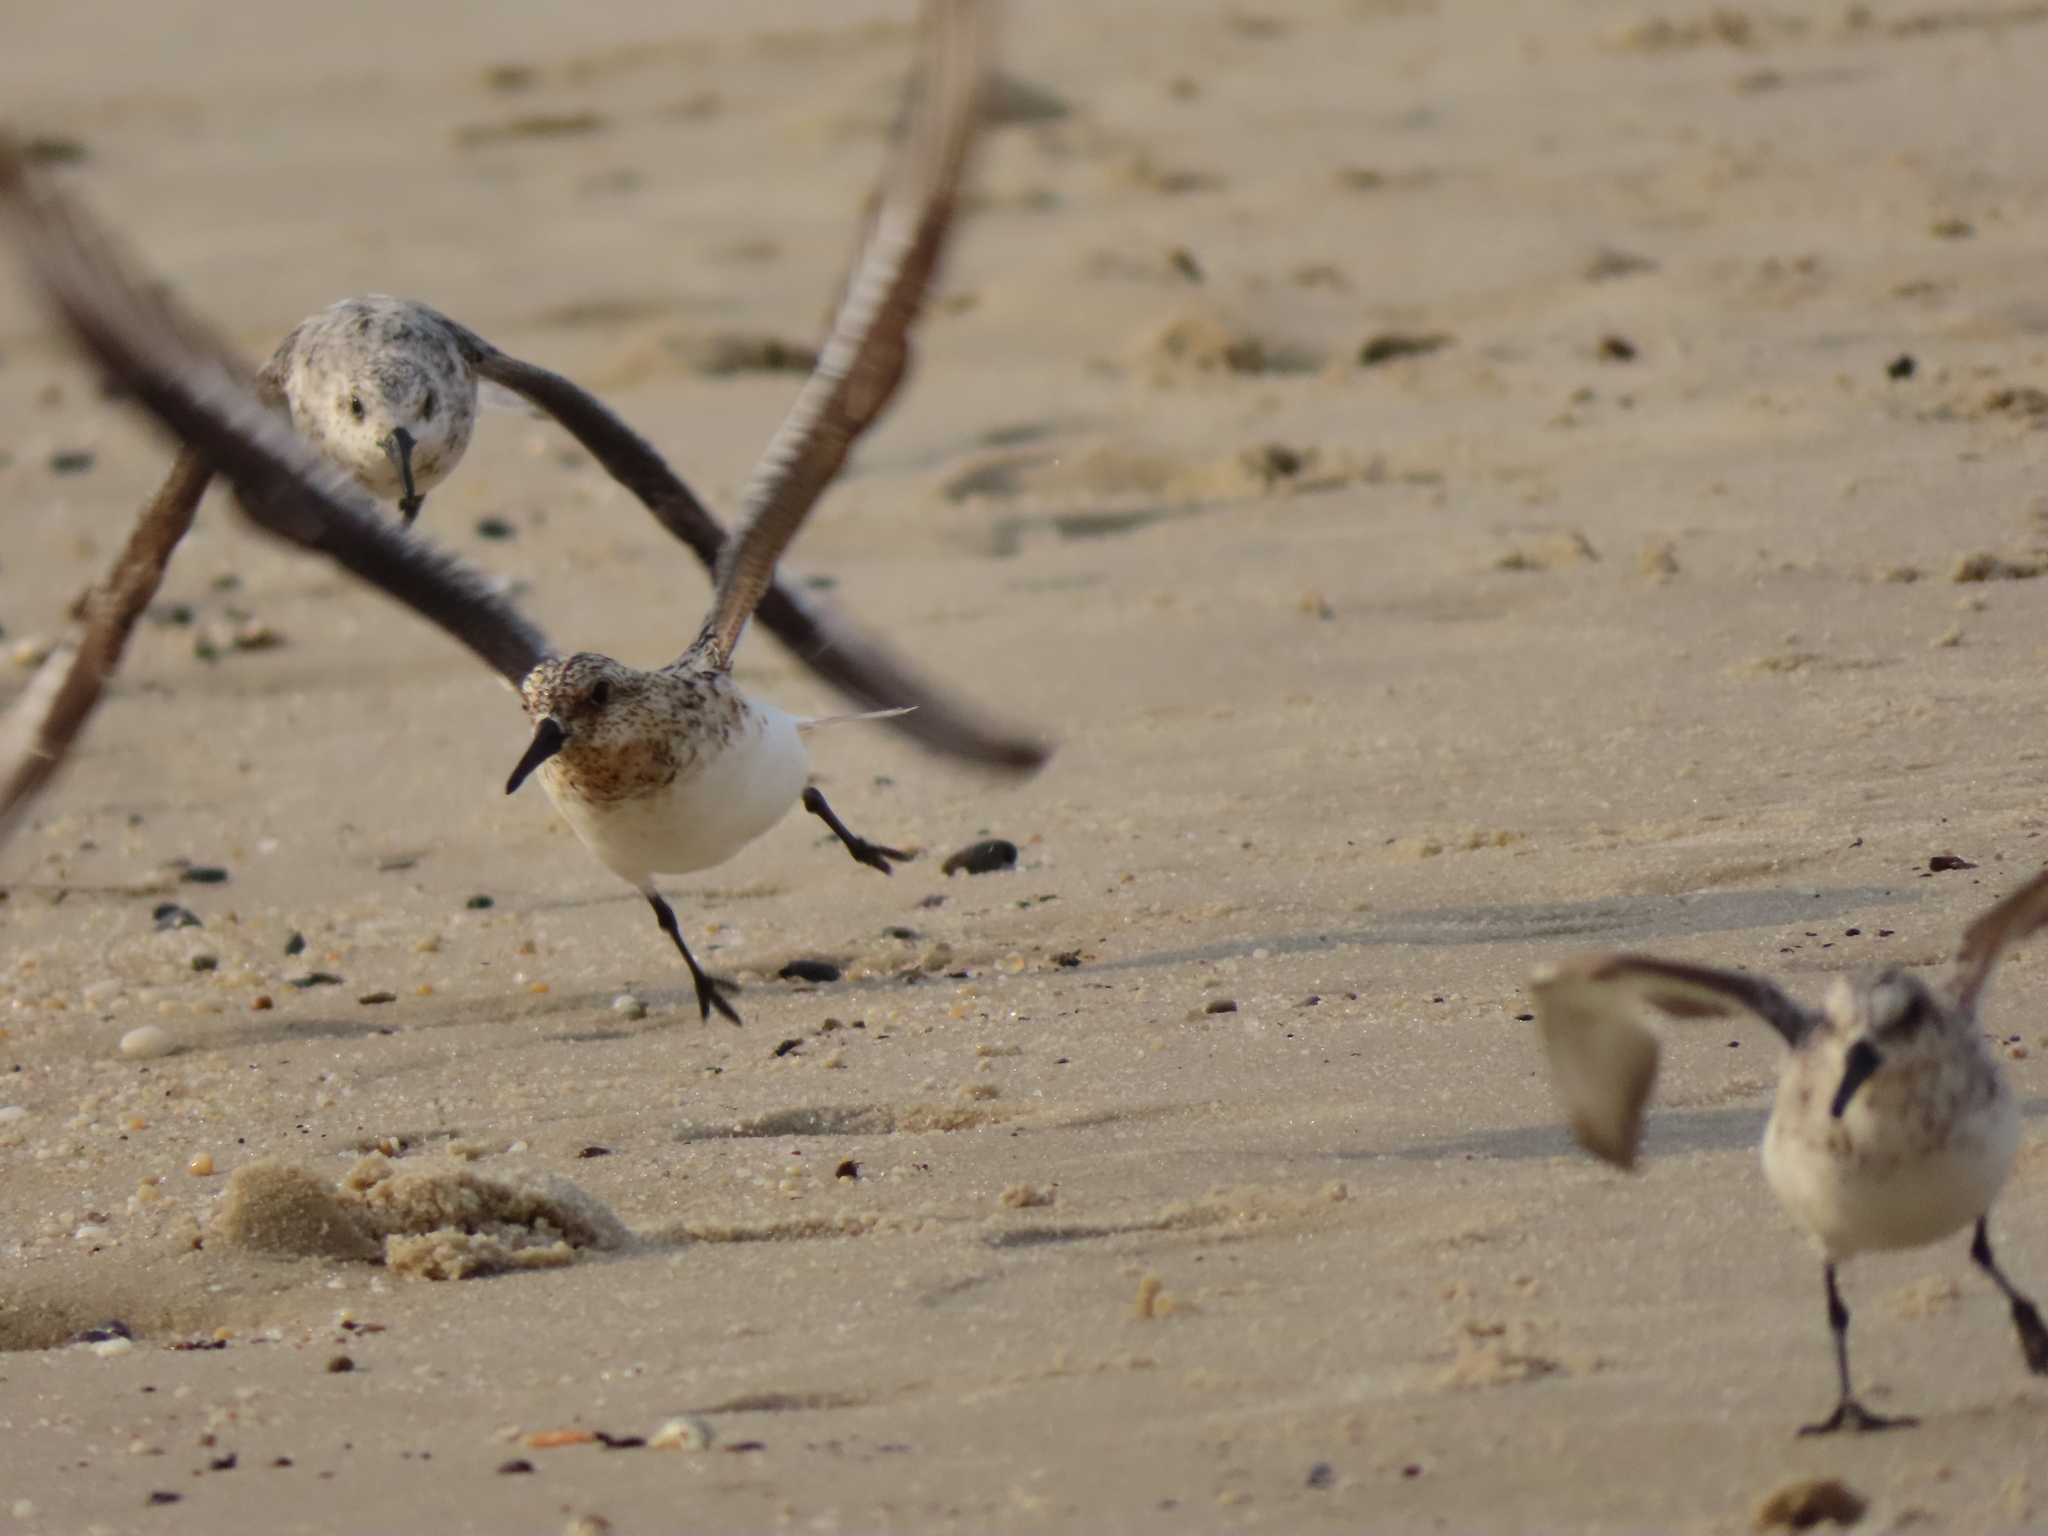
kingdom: Animalia
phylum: Chordata
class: Aves
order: Charadriiformes
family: Scolopacidae
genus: Calidris
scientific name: Calidris alba
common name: Sanderling
